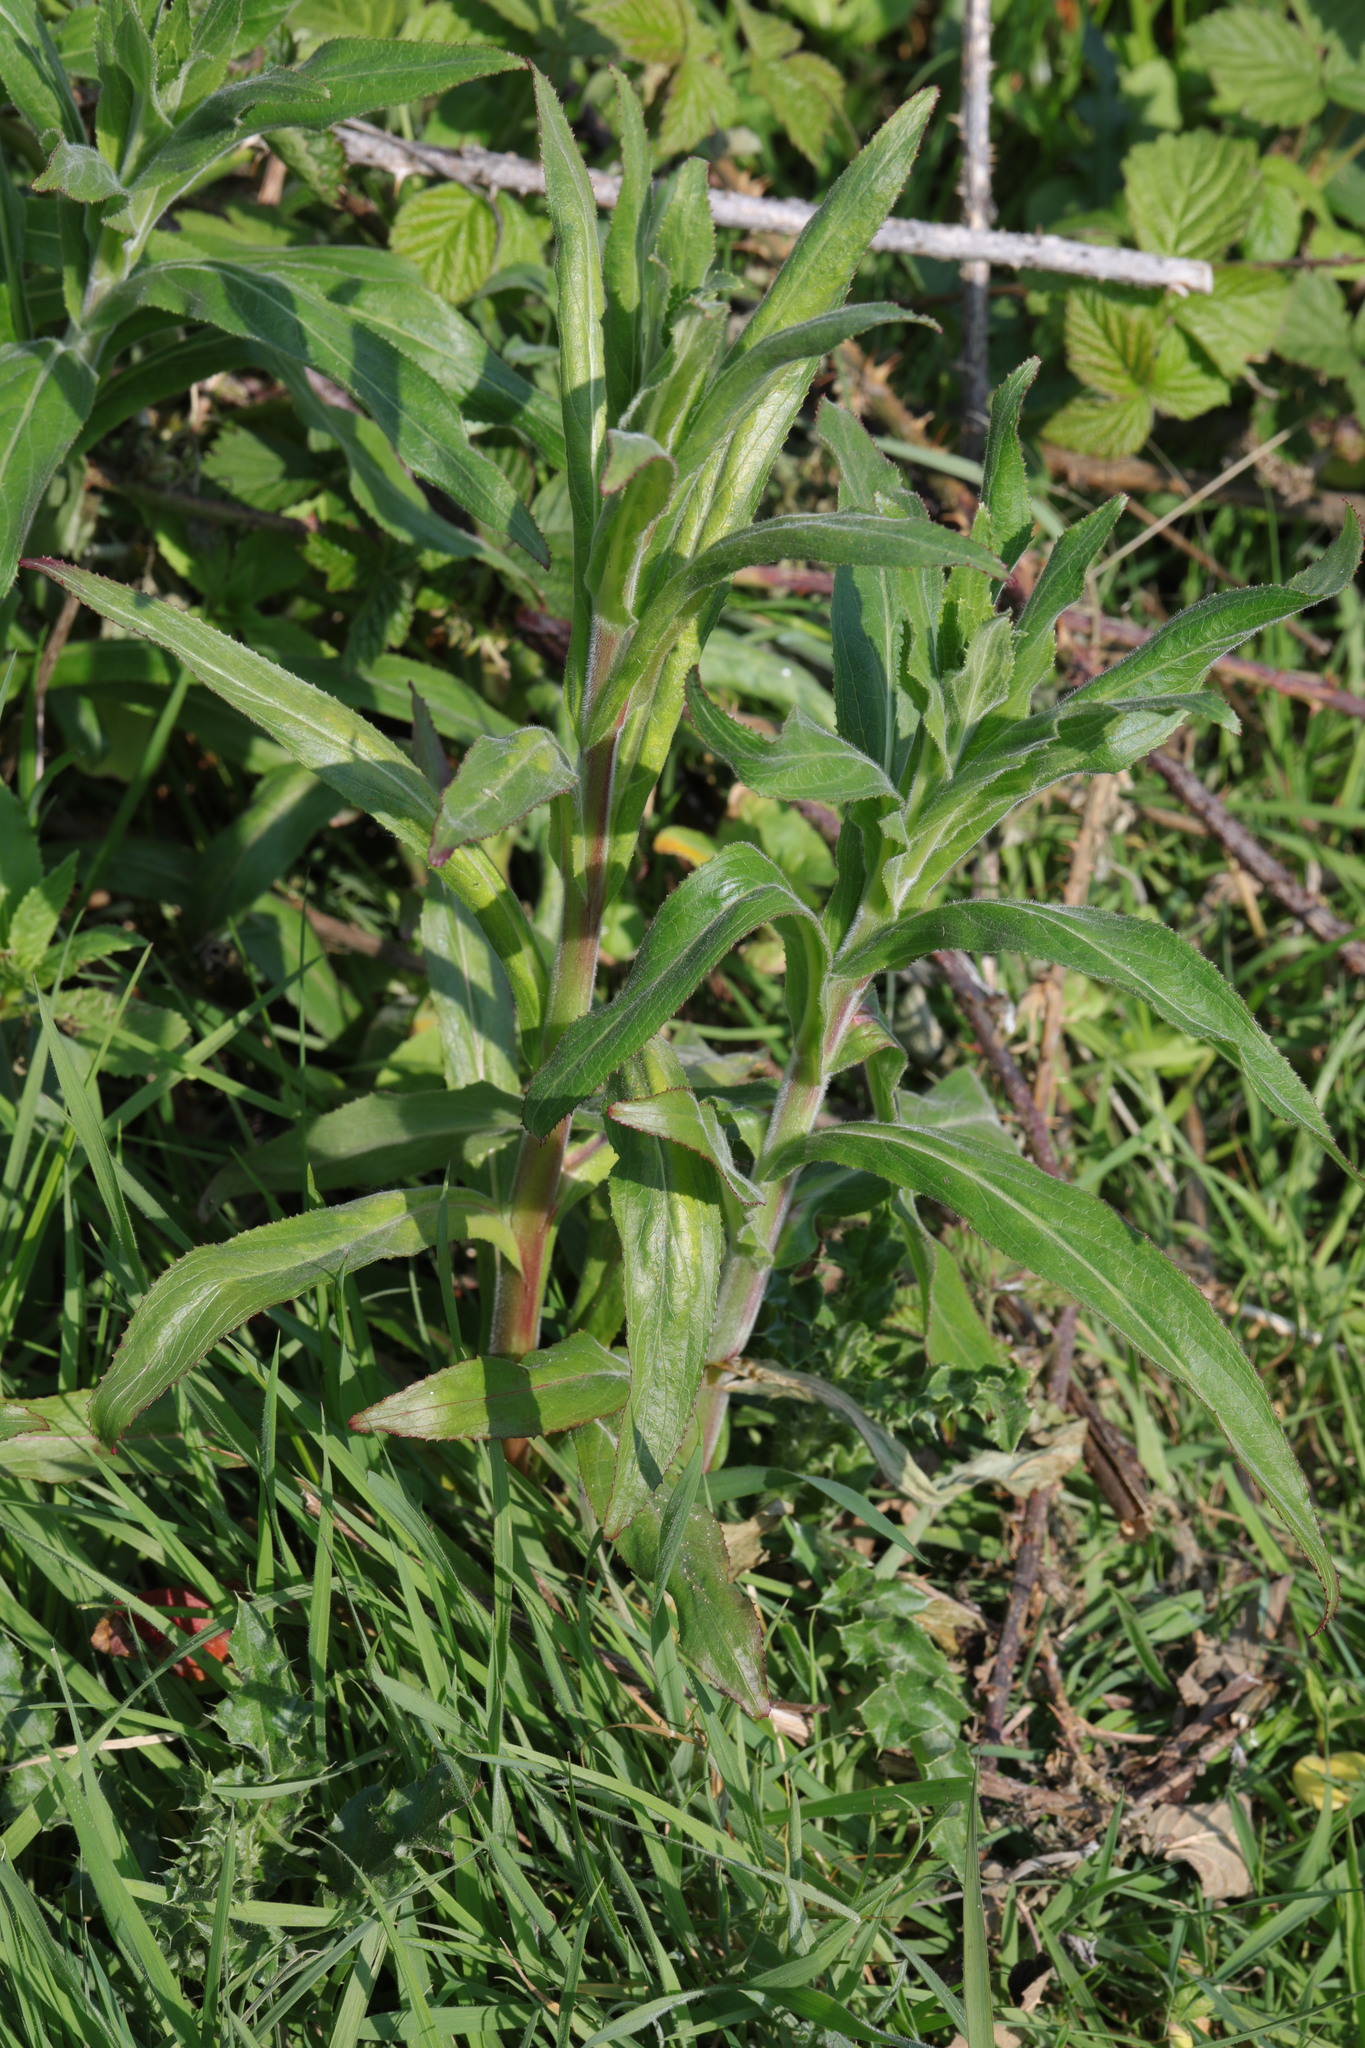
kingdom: Plantae
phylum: Tracheophyta
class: Magnoliopsida
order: Myrtales
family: Onagraceae
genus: Epilobium
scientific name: Epilobium hirsutum
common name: Great willowherb
